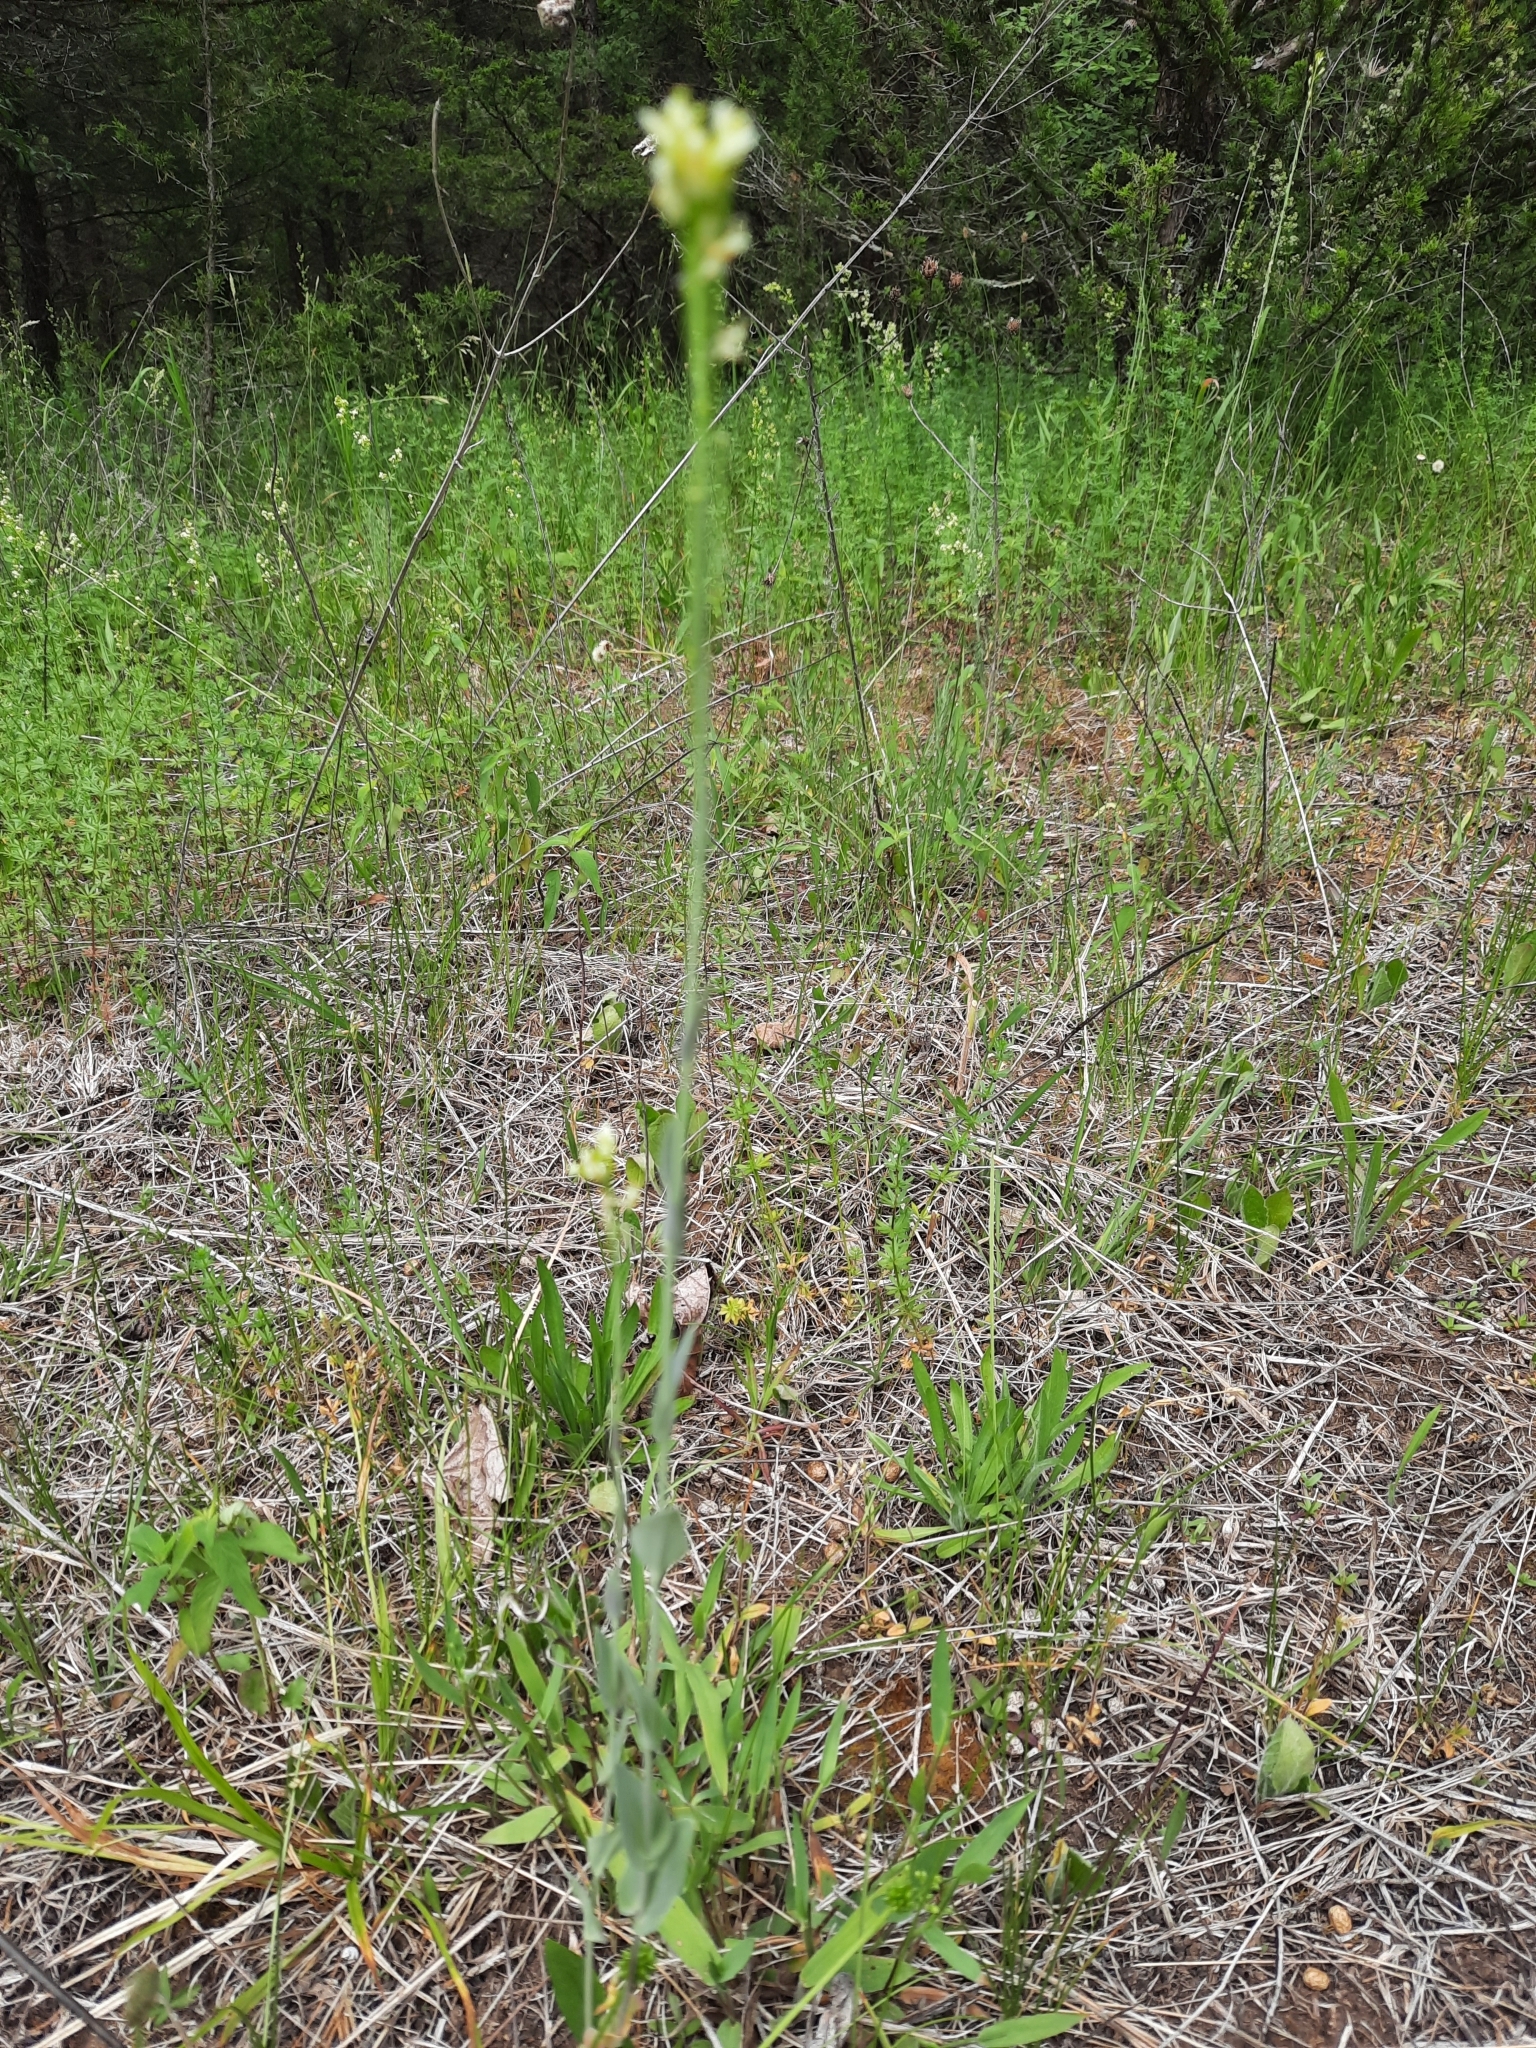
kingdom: Plantae
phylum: Tracheophyta
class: Magnoliopsida
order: Brassicales
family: Brassicaceae
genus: Turritis
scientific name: Turritis glabra
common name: Tower rockcress
